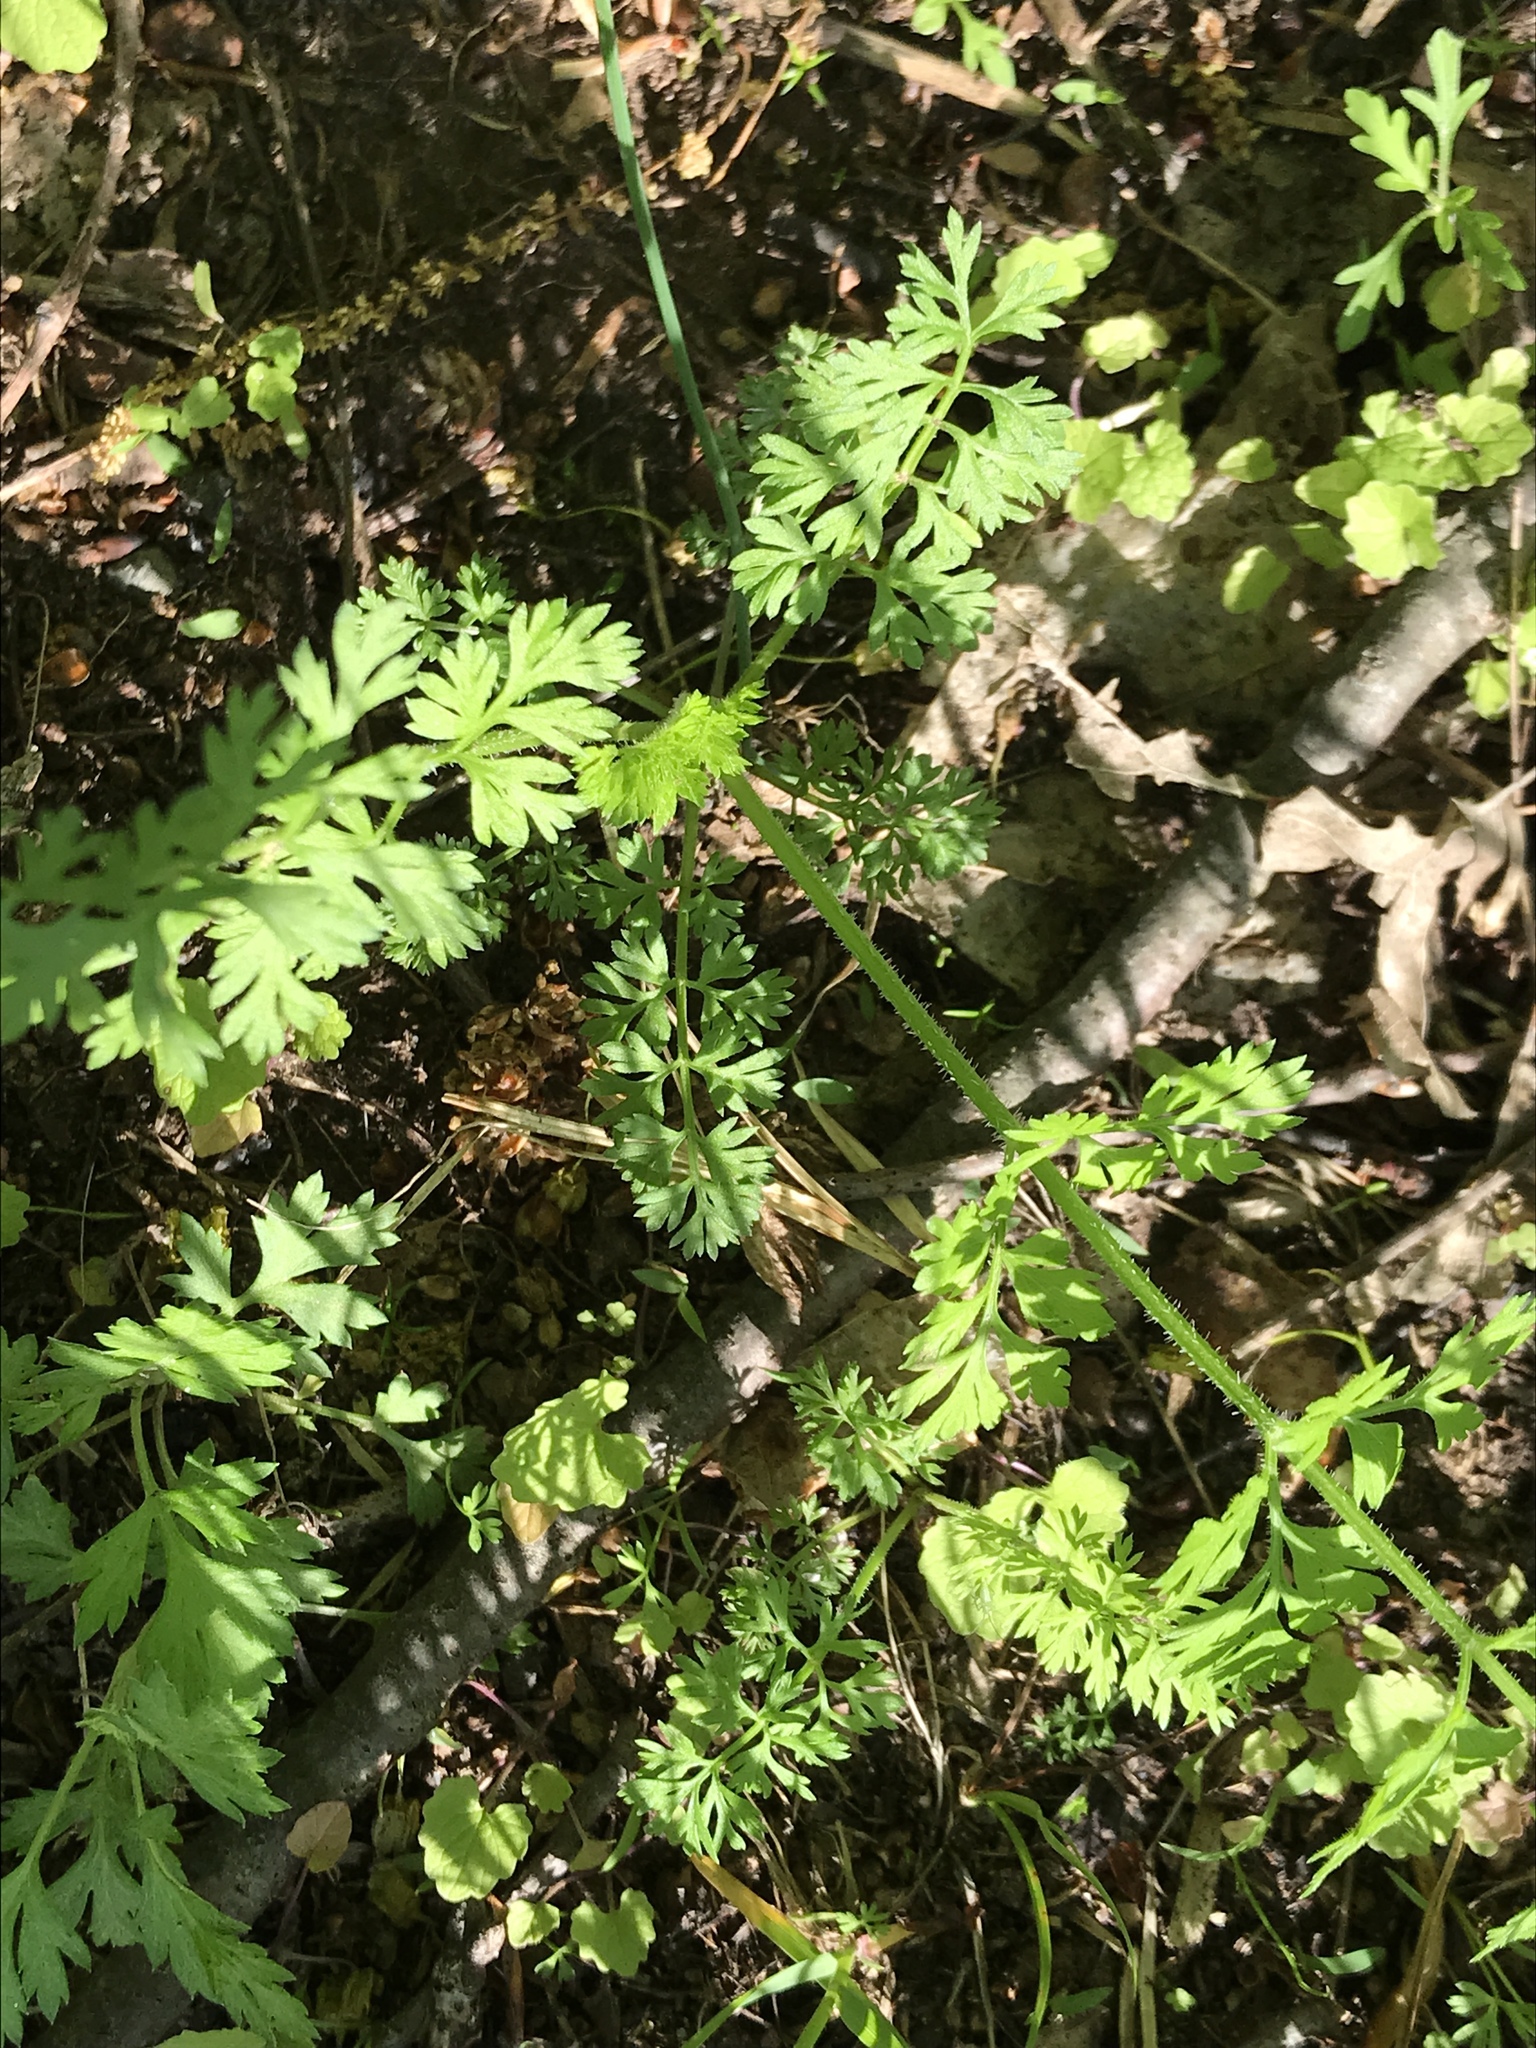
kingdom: Plantae
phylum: Tracheophyta
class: Magnoliopsida
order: Apiales
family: Apiaceae
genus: Daucus
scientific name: Daucus carota
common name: Wild carrot
